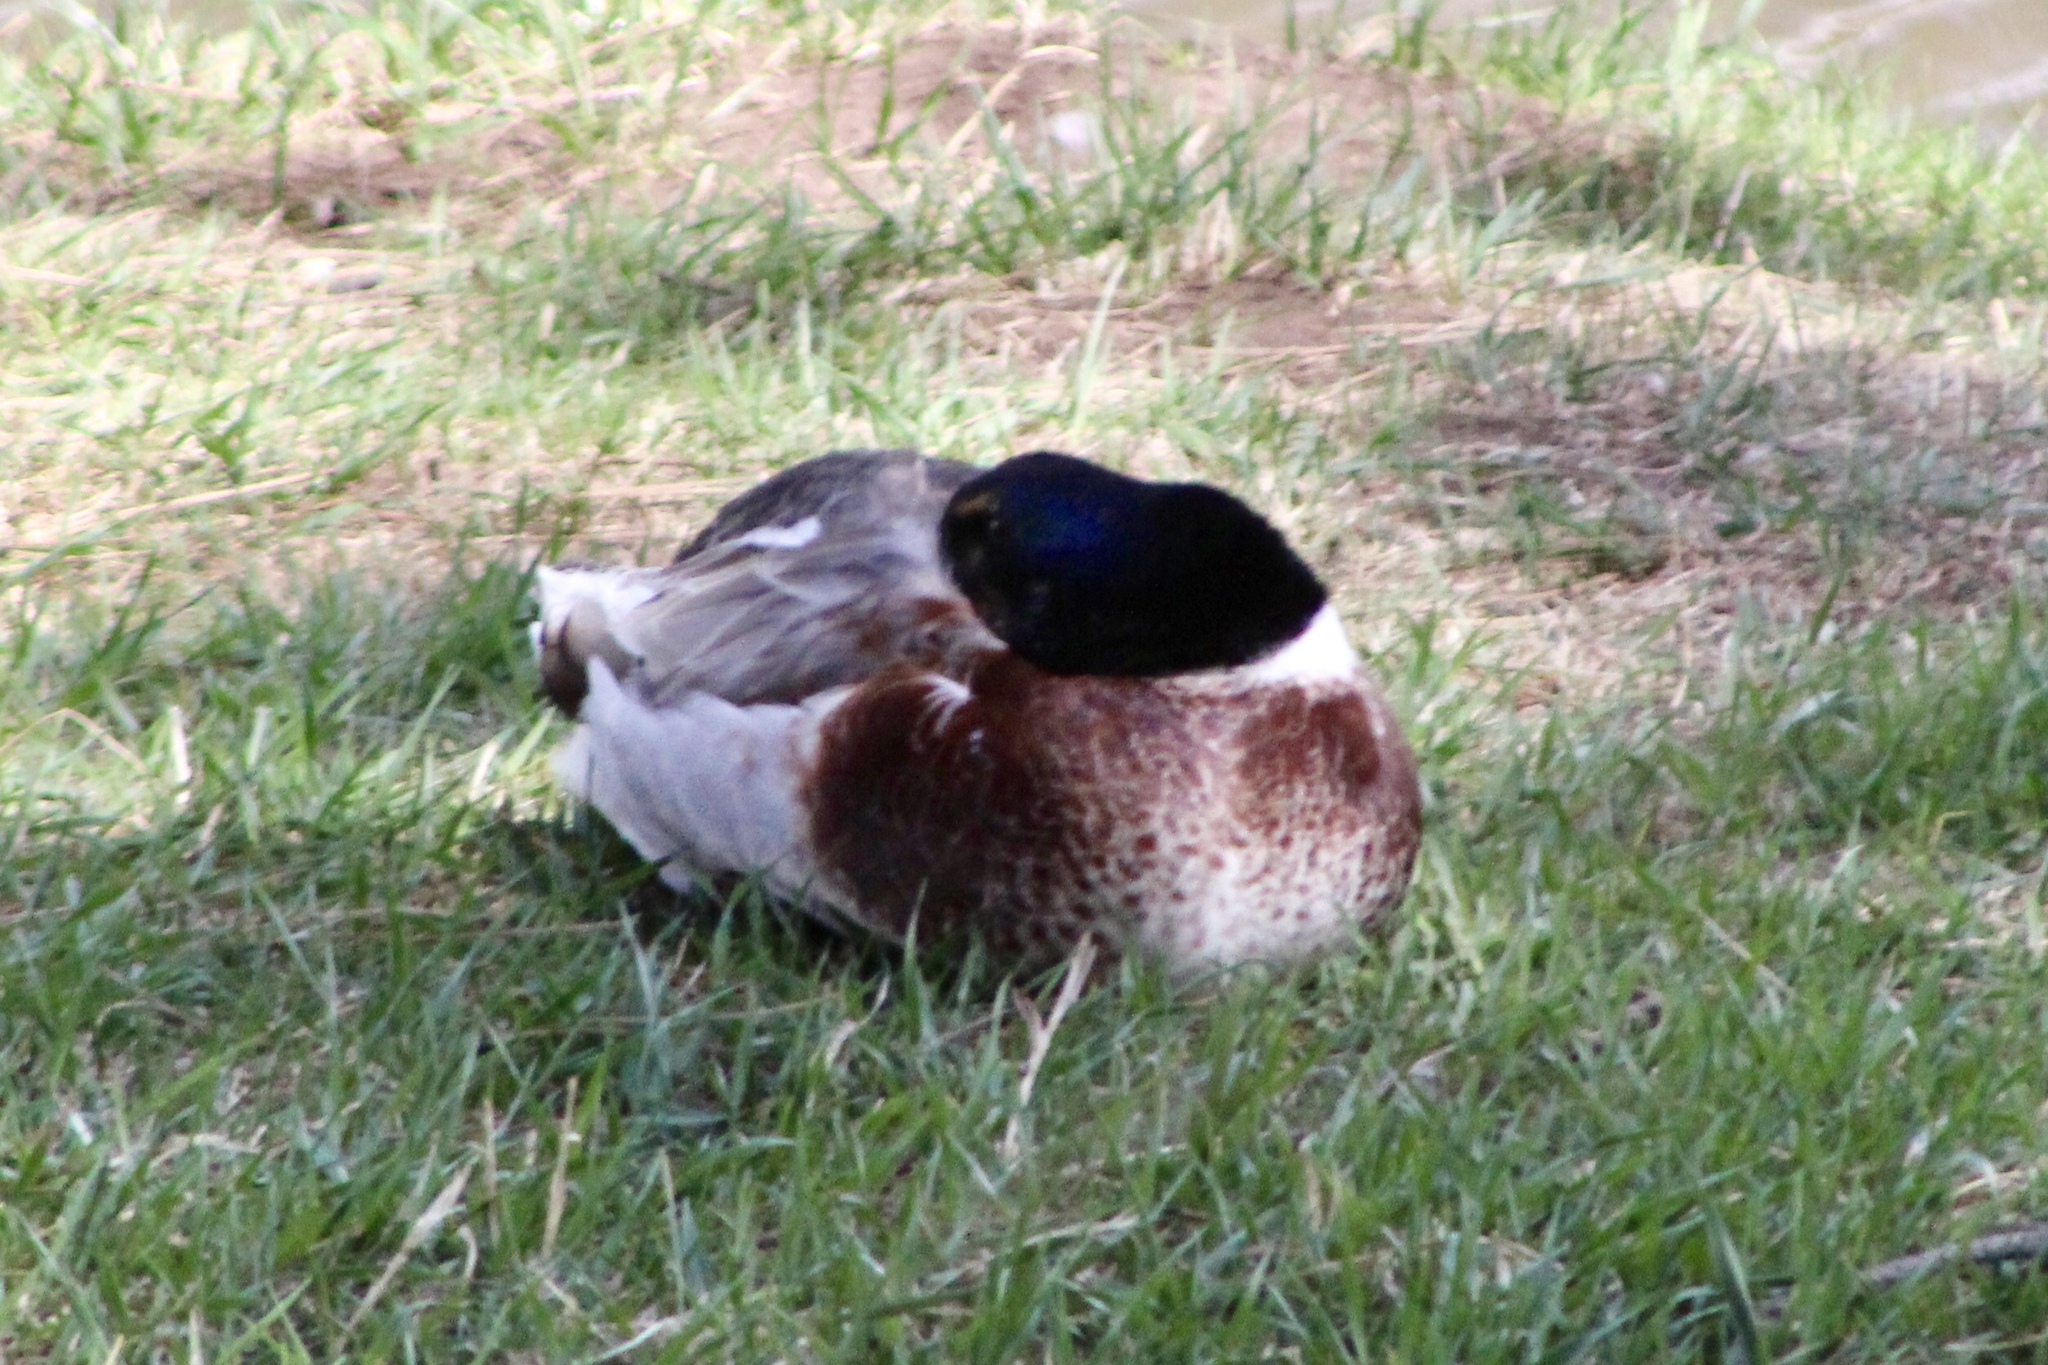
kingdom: Animalia
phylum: Chordata
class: Aves
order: Anseriformes
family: Anatidae
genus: Anas
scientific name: Anas platyrhynchos
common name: Mallard
